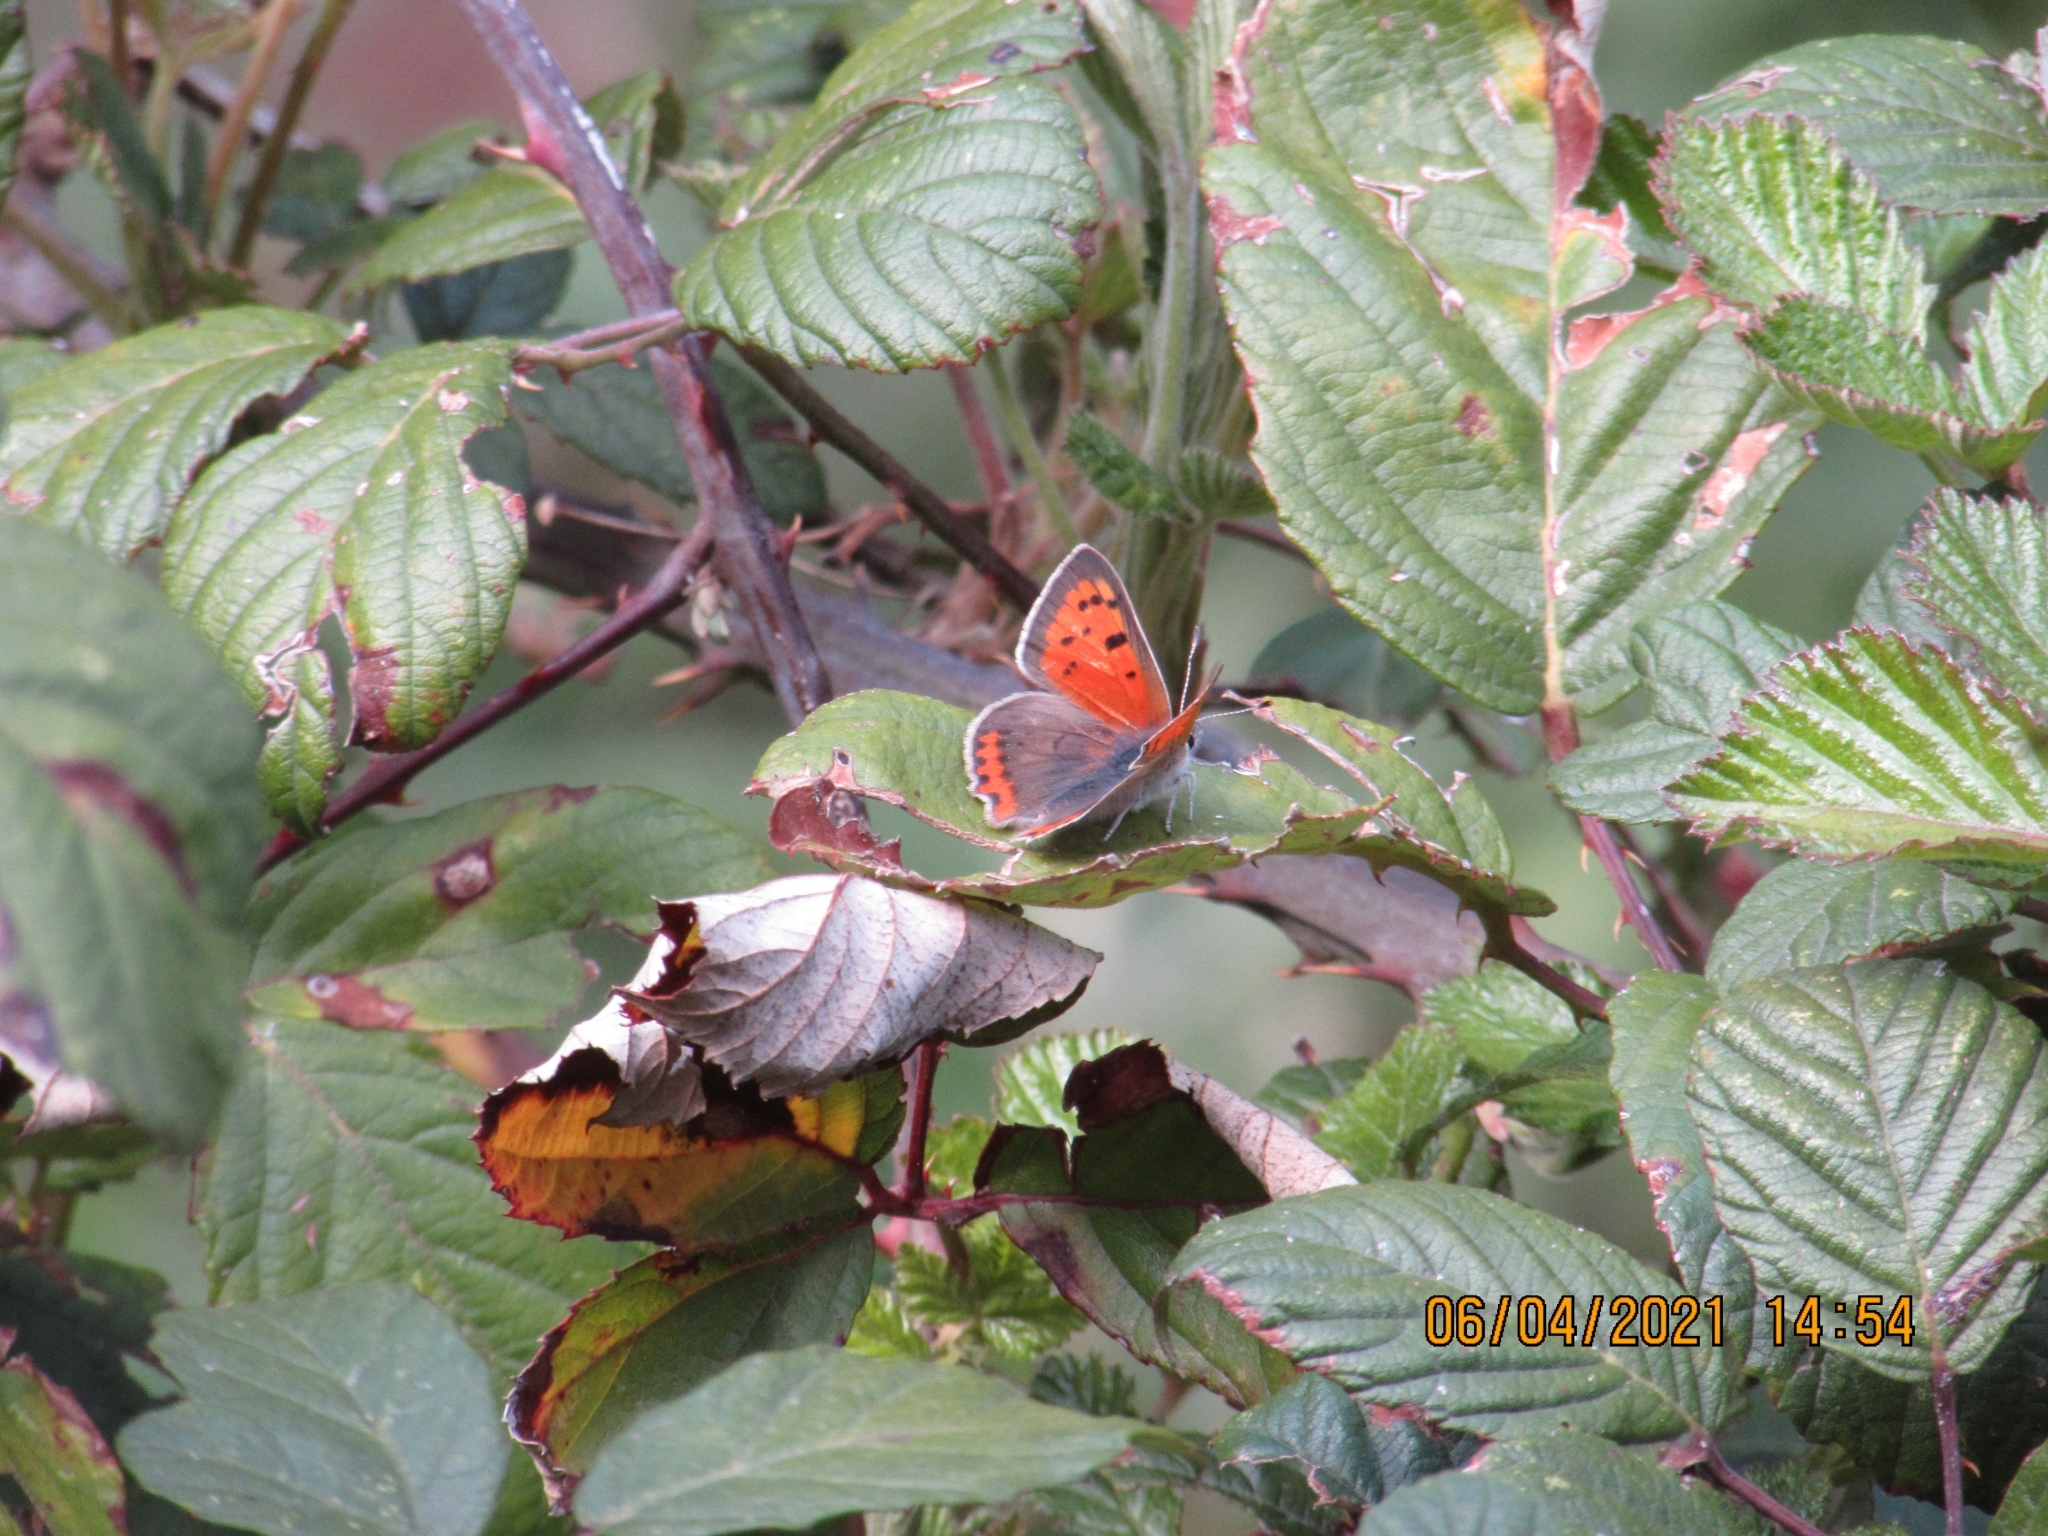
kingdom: Animalia
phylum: Arthropoda
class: Insecta
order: Lepidoptera
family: Lycaenidae
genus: Lycaena
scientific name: Lycaena phlaeas
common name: Small copper
